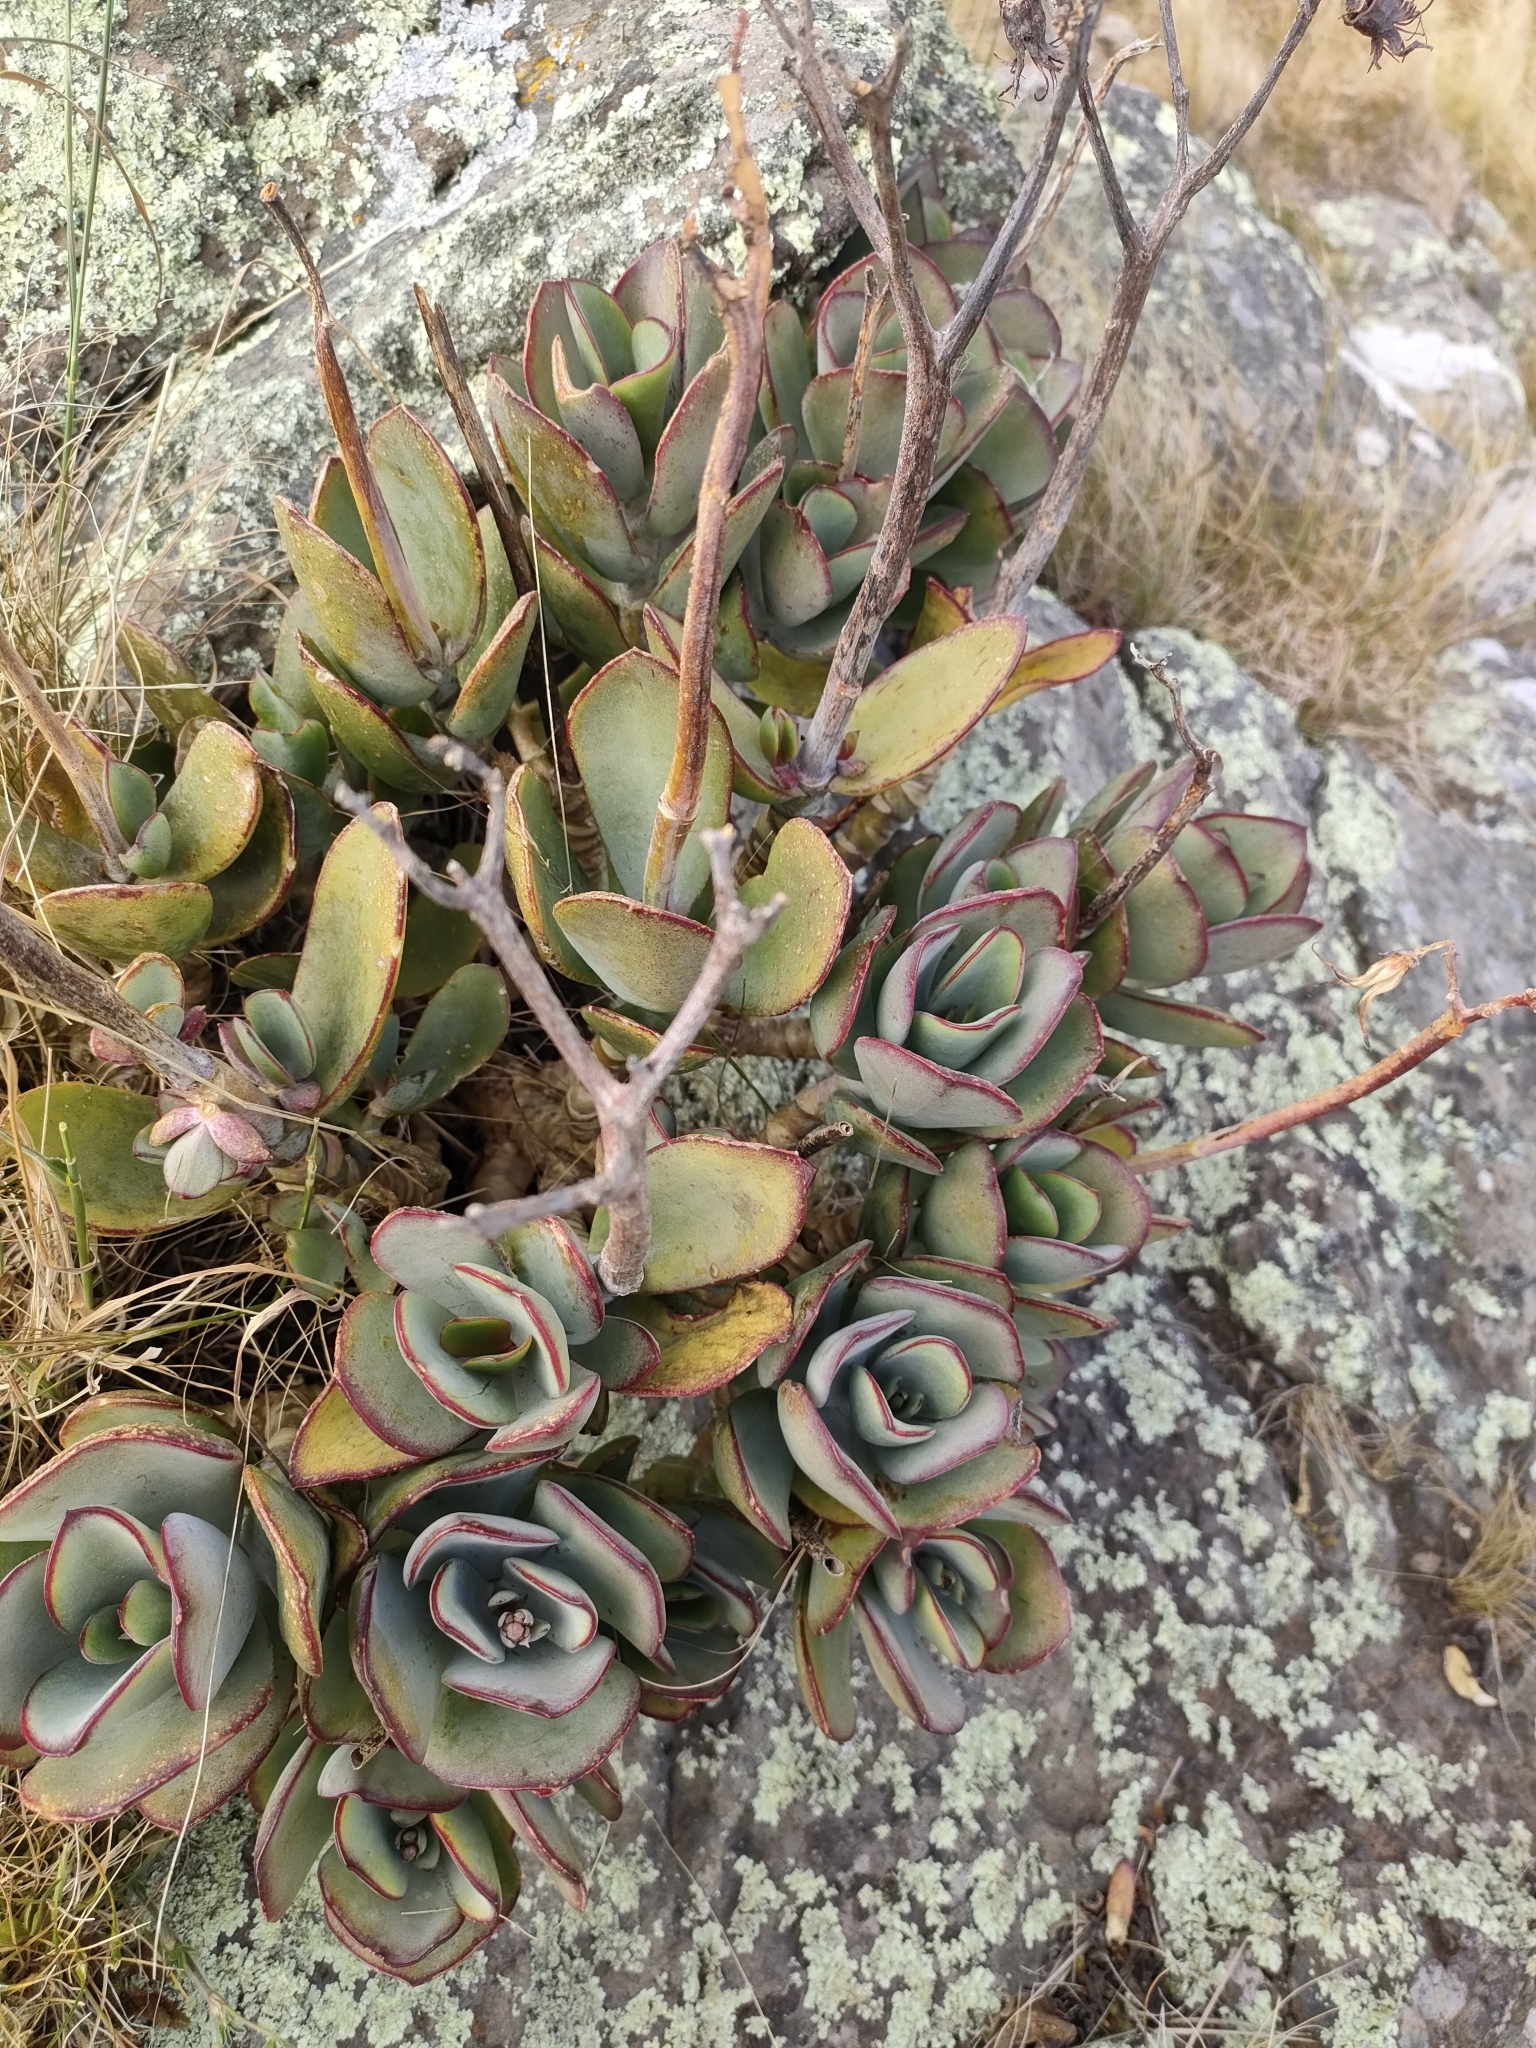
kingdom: Plantae
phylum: Tracheophyta
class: Magnoliopsida
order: Saxifragales
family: Crassulaceae
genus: Cotyledon
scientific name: Cotyledon orbiculata
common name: Pig's ear
